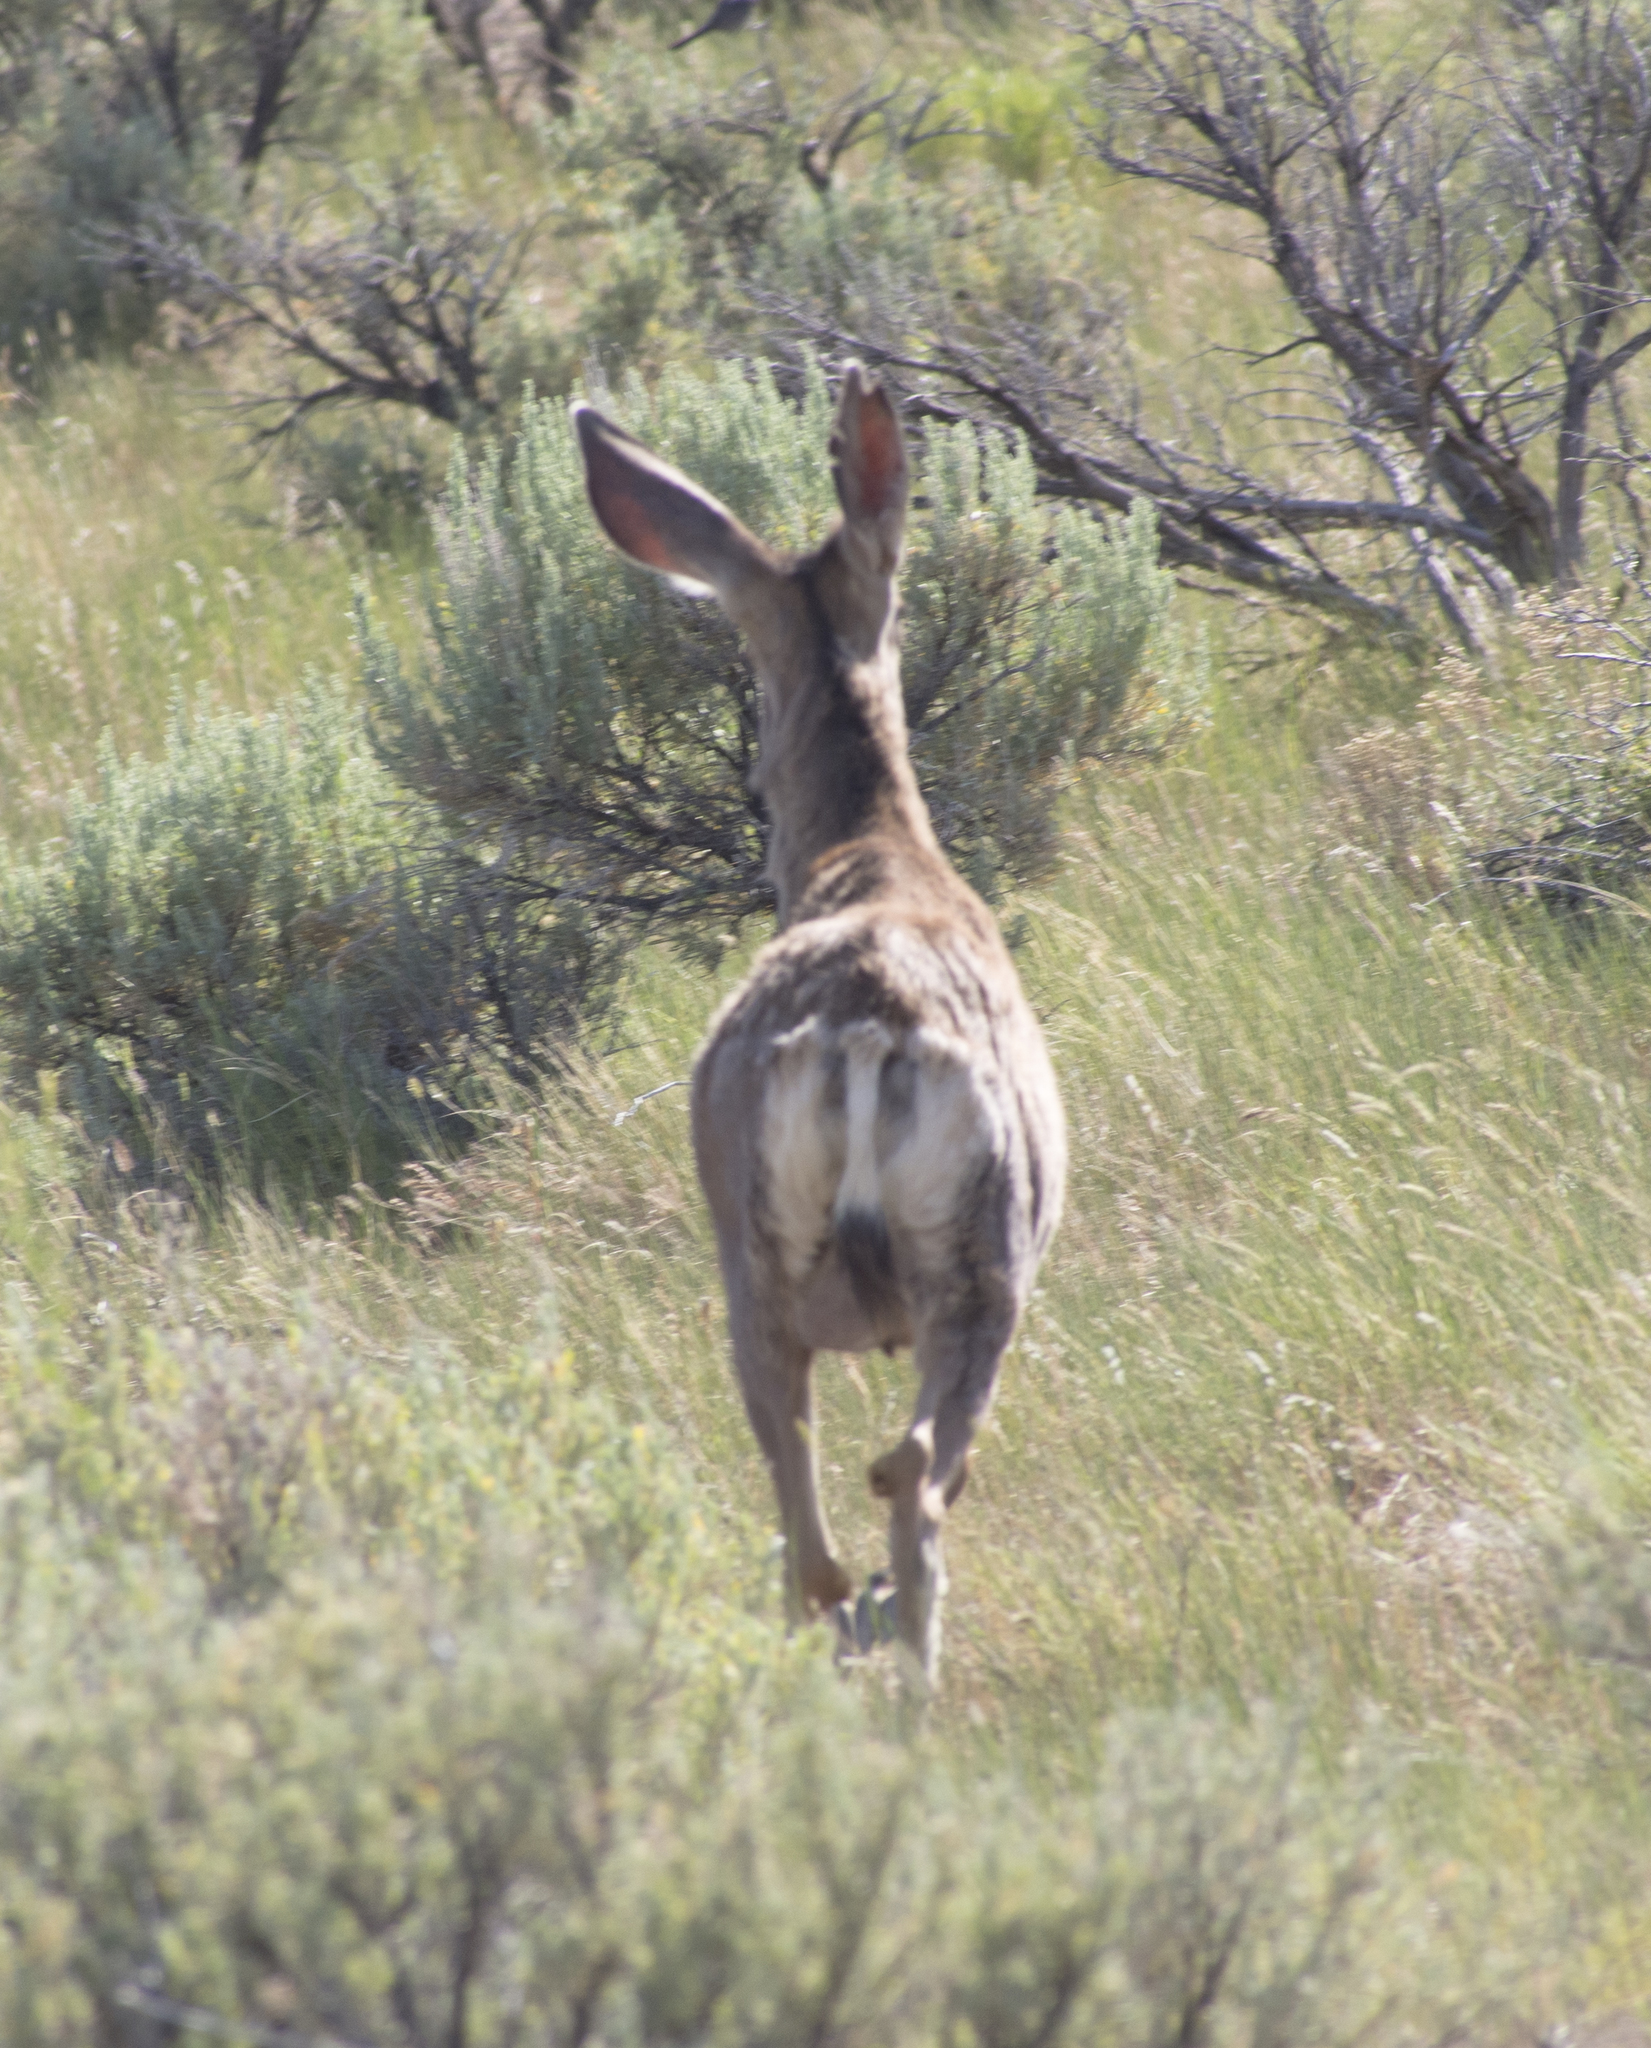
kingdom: Animalia
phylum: Chordata
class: Mammalia
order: Artiodactyla
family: Cervidae
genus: Odocoileus
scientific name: Odocoileus hemionus
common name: Mule deer
